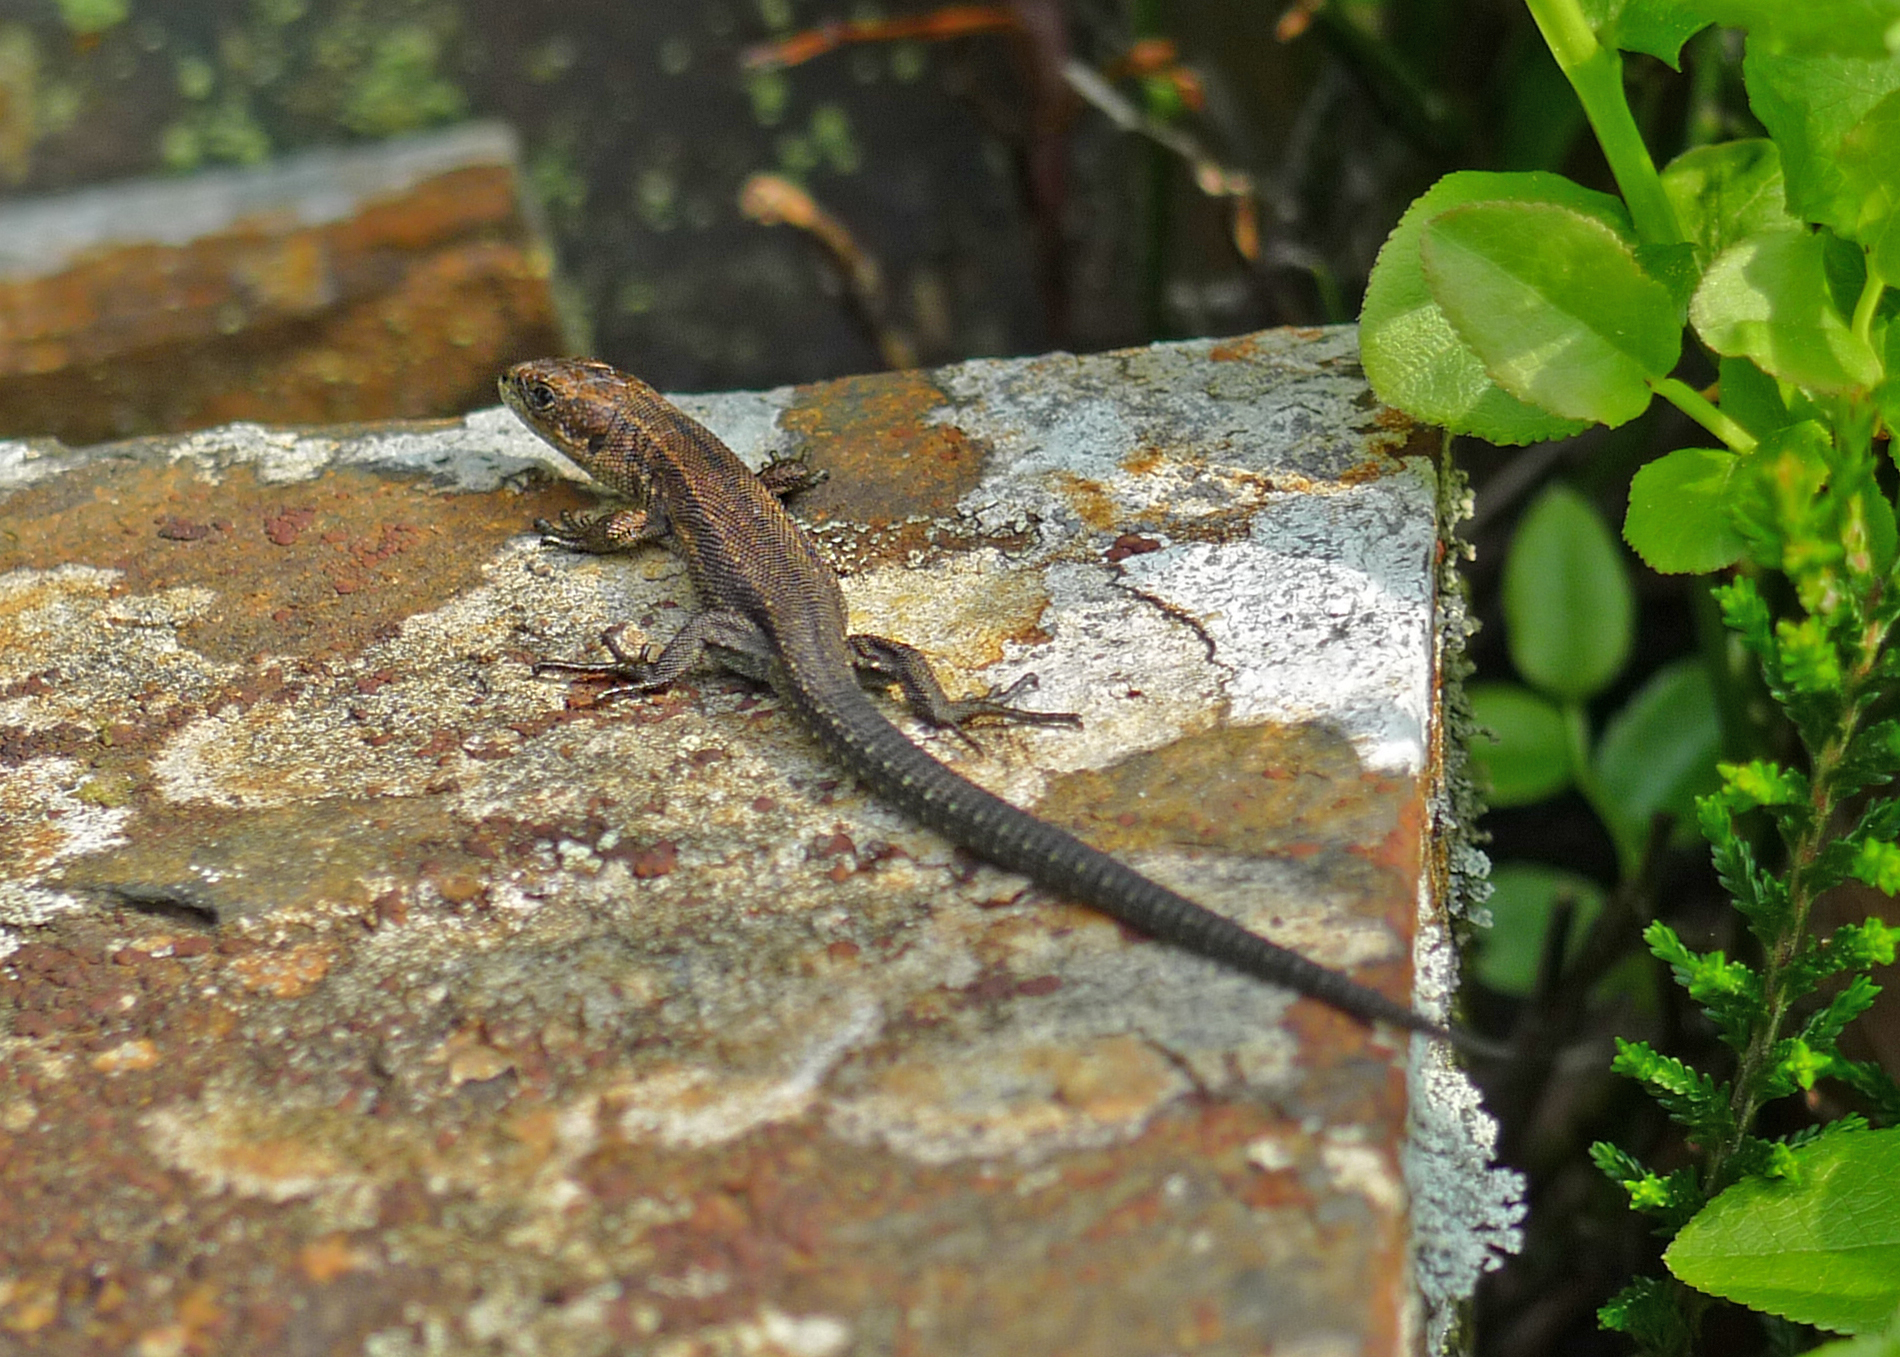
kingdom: Animalia
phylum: Chordata
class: Squamata
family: Lacertidae
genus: Zootoca
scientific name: Zootoca vivipara
